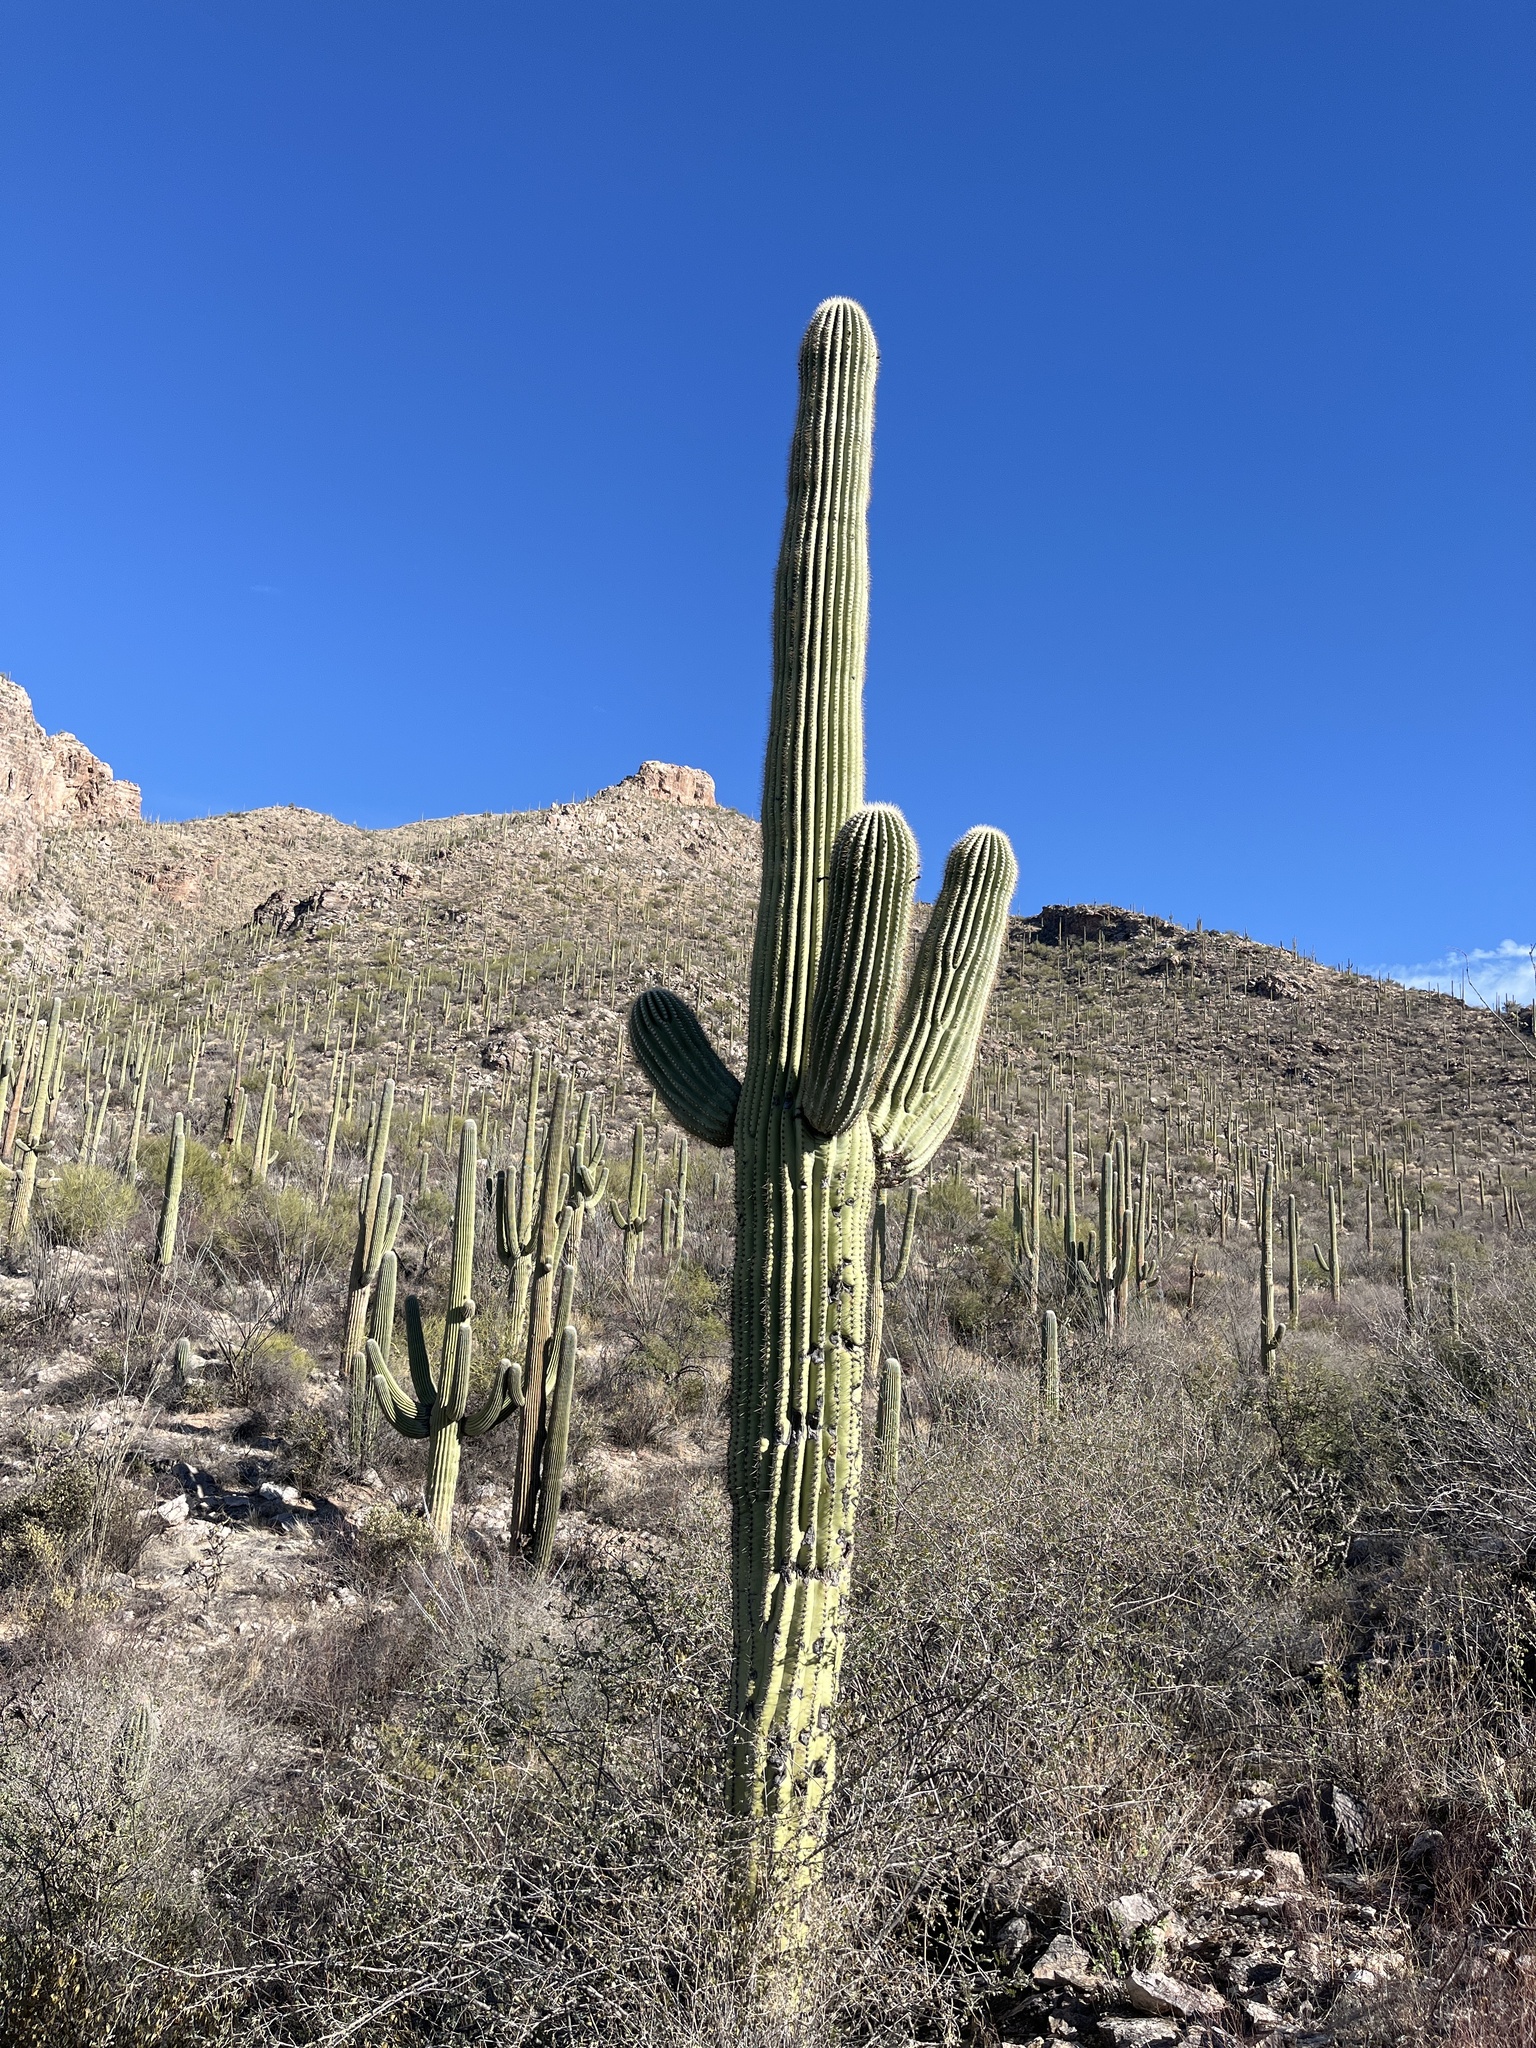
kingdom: Plantae
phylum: Tracheophyta
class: Magnoliopsida
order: Caryophyllales
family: Cactaceae
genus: Carnegiea
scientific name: Carnegiea gigantea
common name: Saguaro
